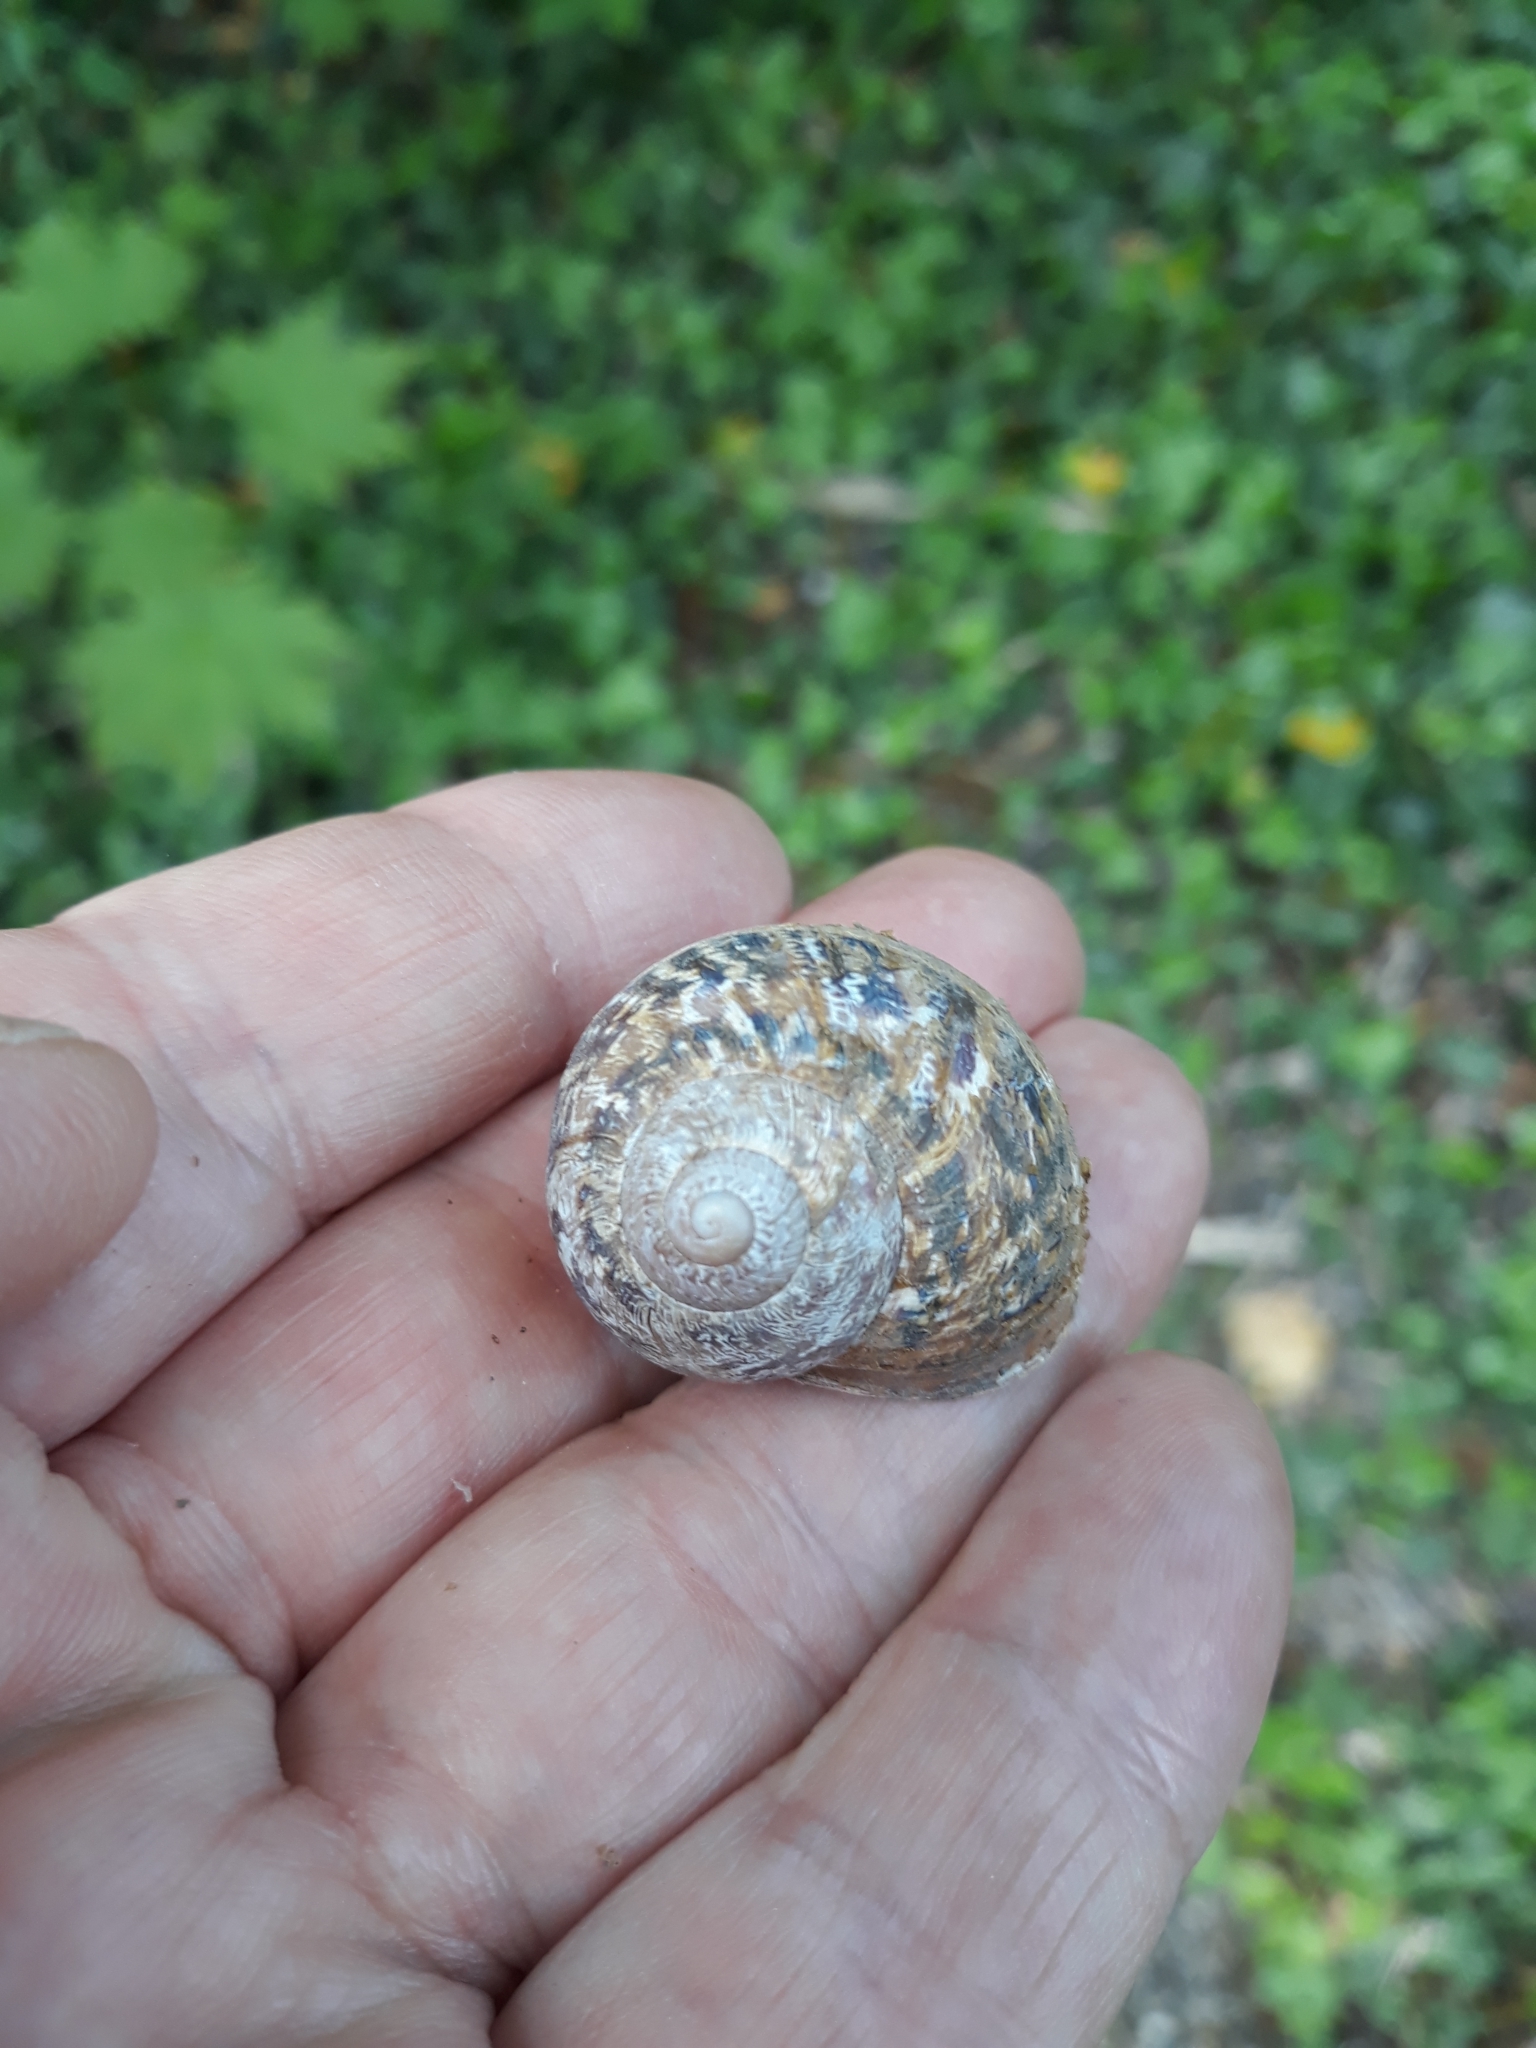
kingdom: Animalia
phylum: Mollusca
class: Gastropoda
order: Stylommatophora
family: Helicidae
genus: Cornu
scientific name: Cornu aspersum
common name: Brown garden snail
